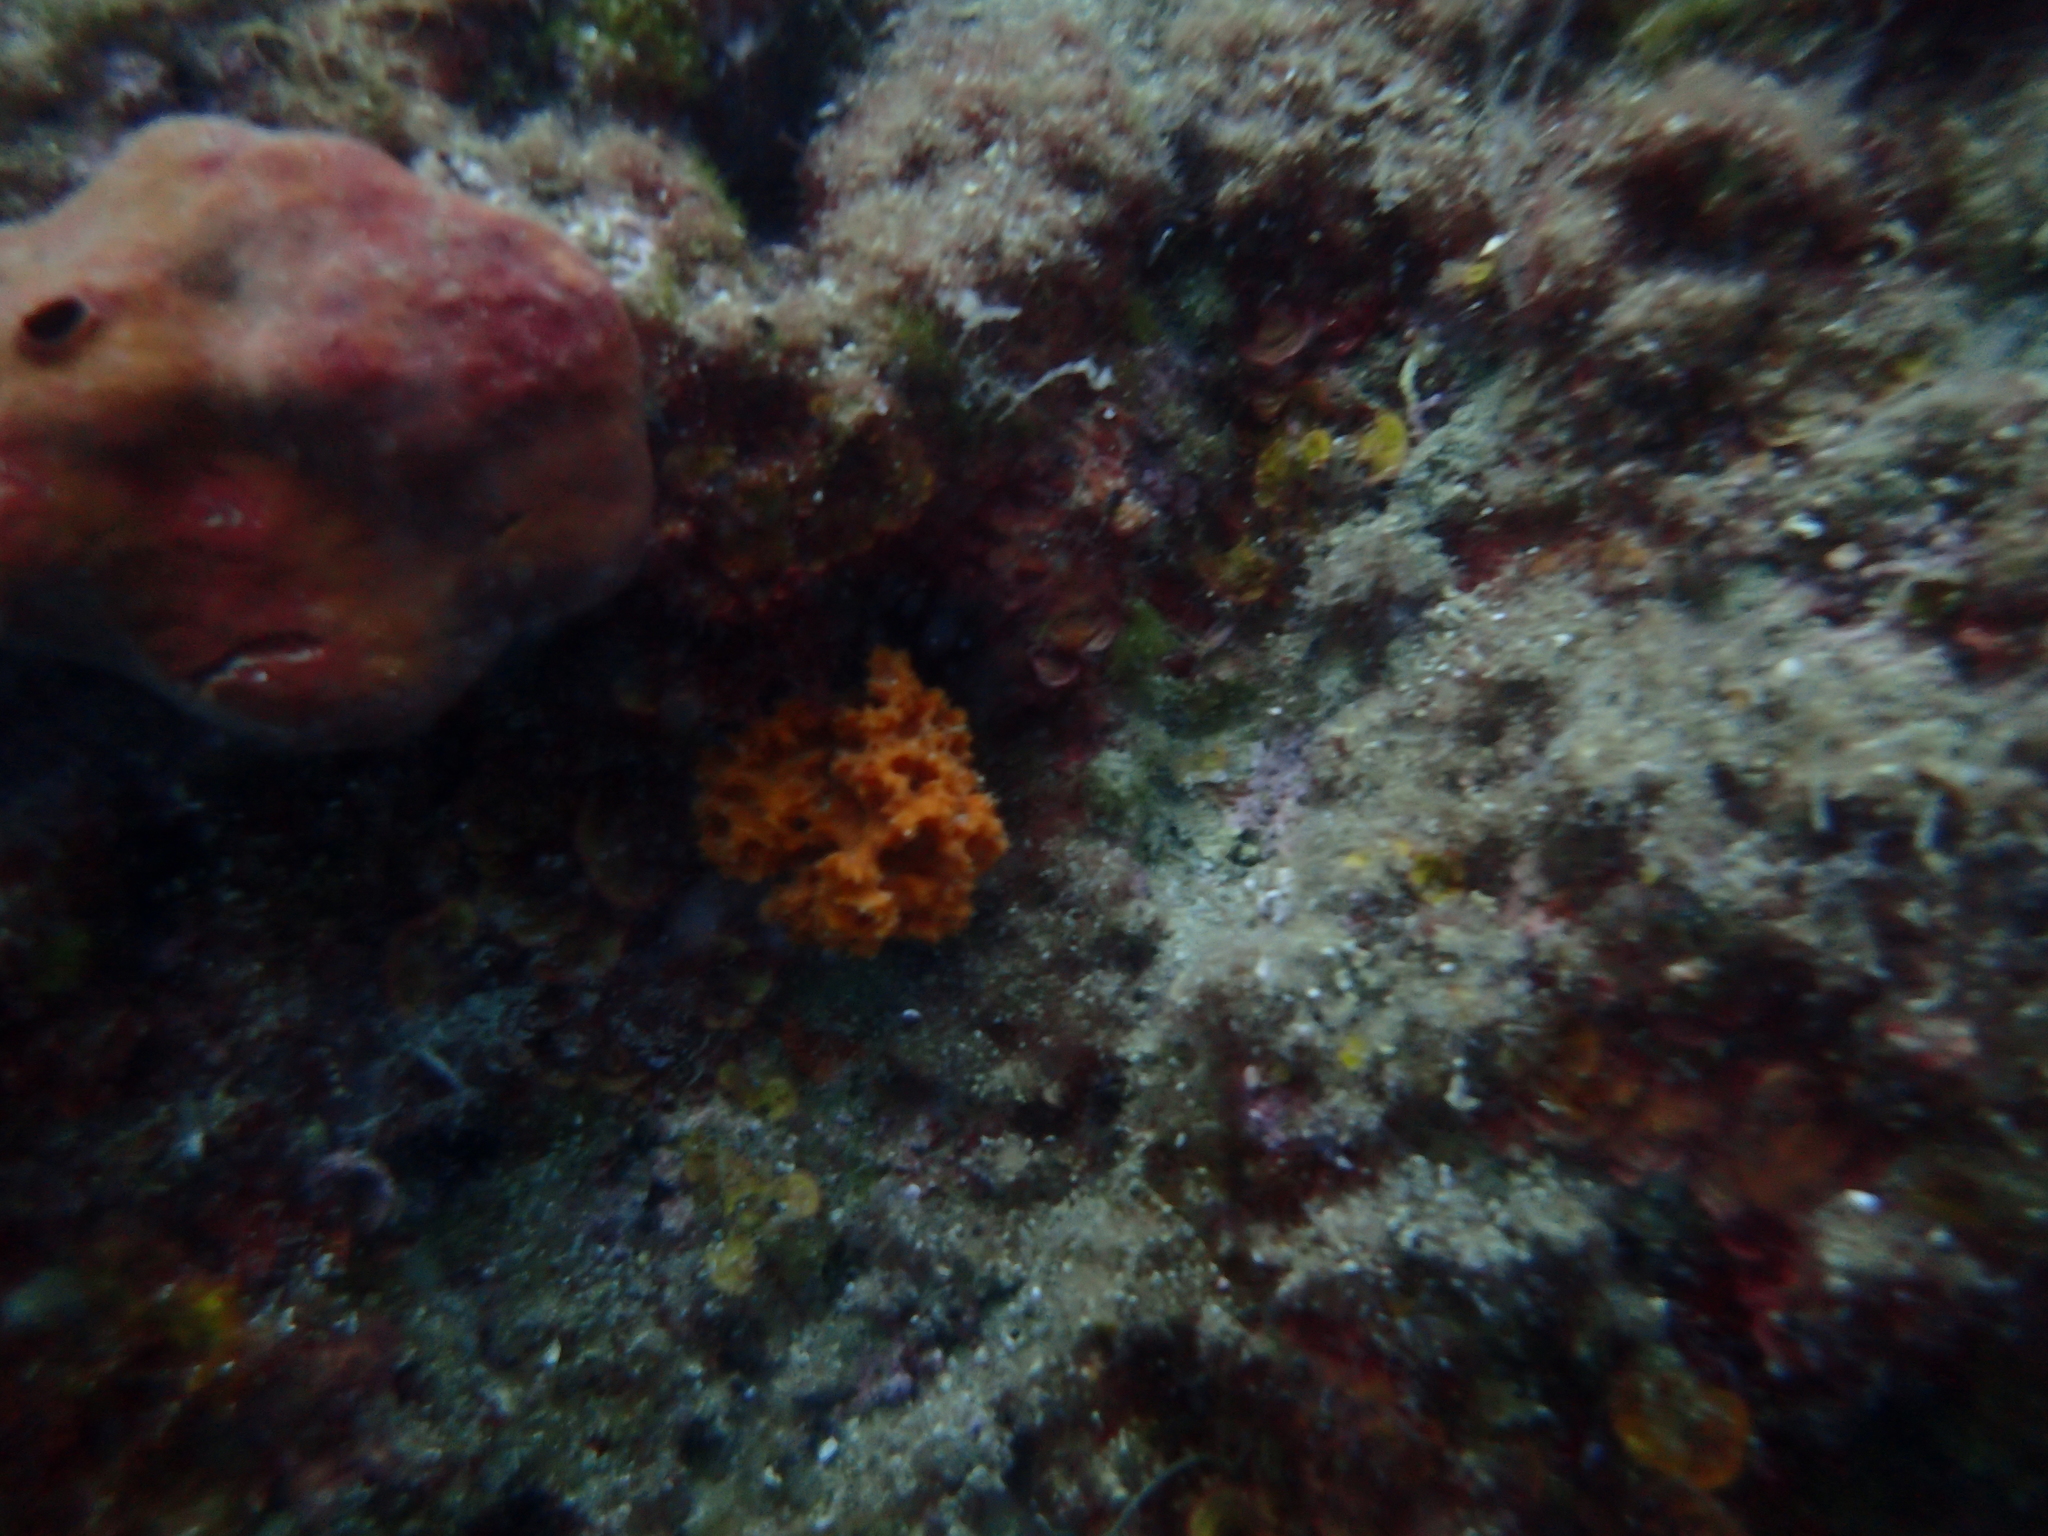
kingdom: Animalia
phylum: Porifera
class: Demospongiae
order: Bubarida
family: Dictyonellidae
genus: Acanthella
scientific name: Acanthella acuta
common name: Cactus sponge
